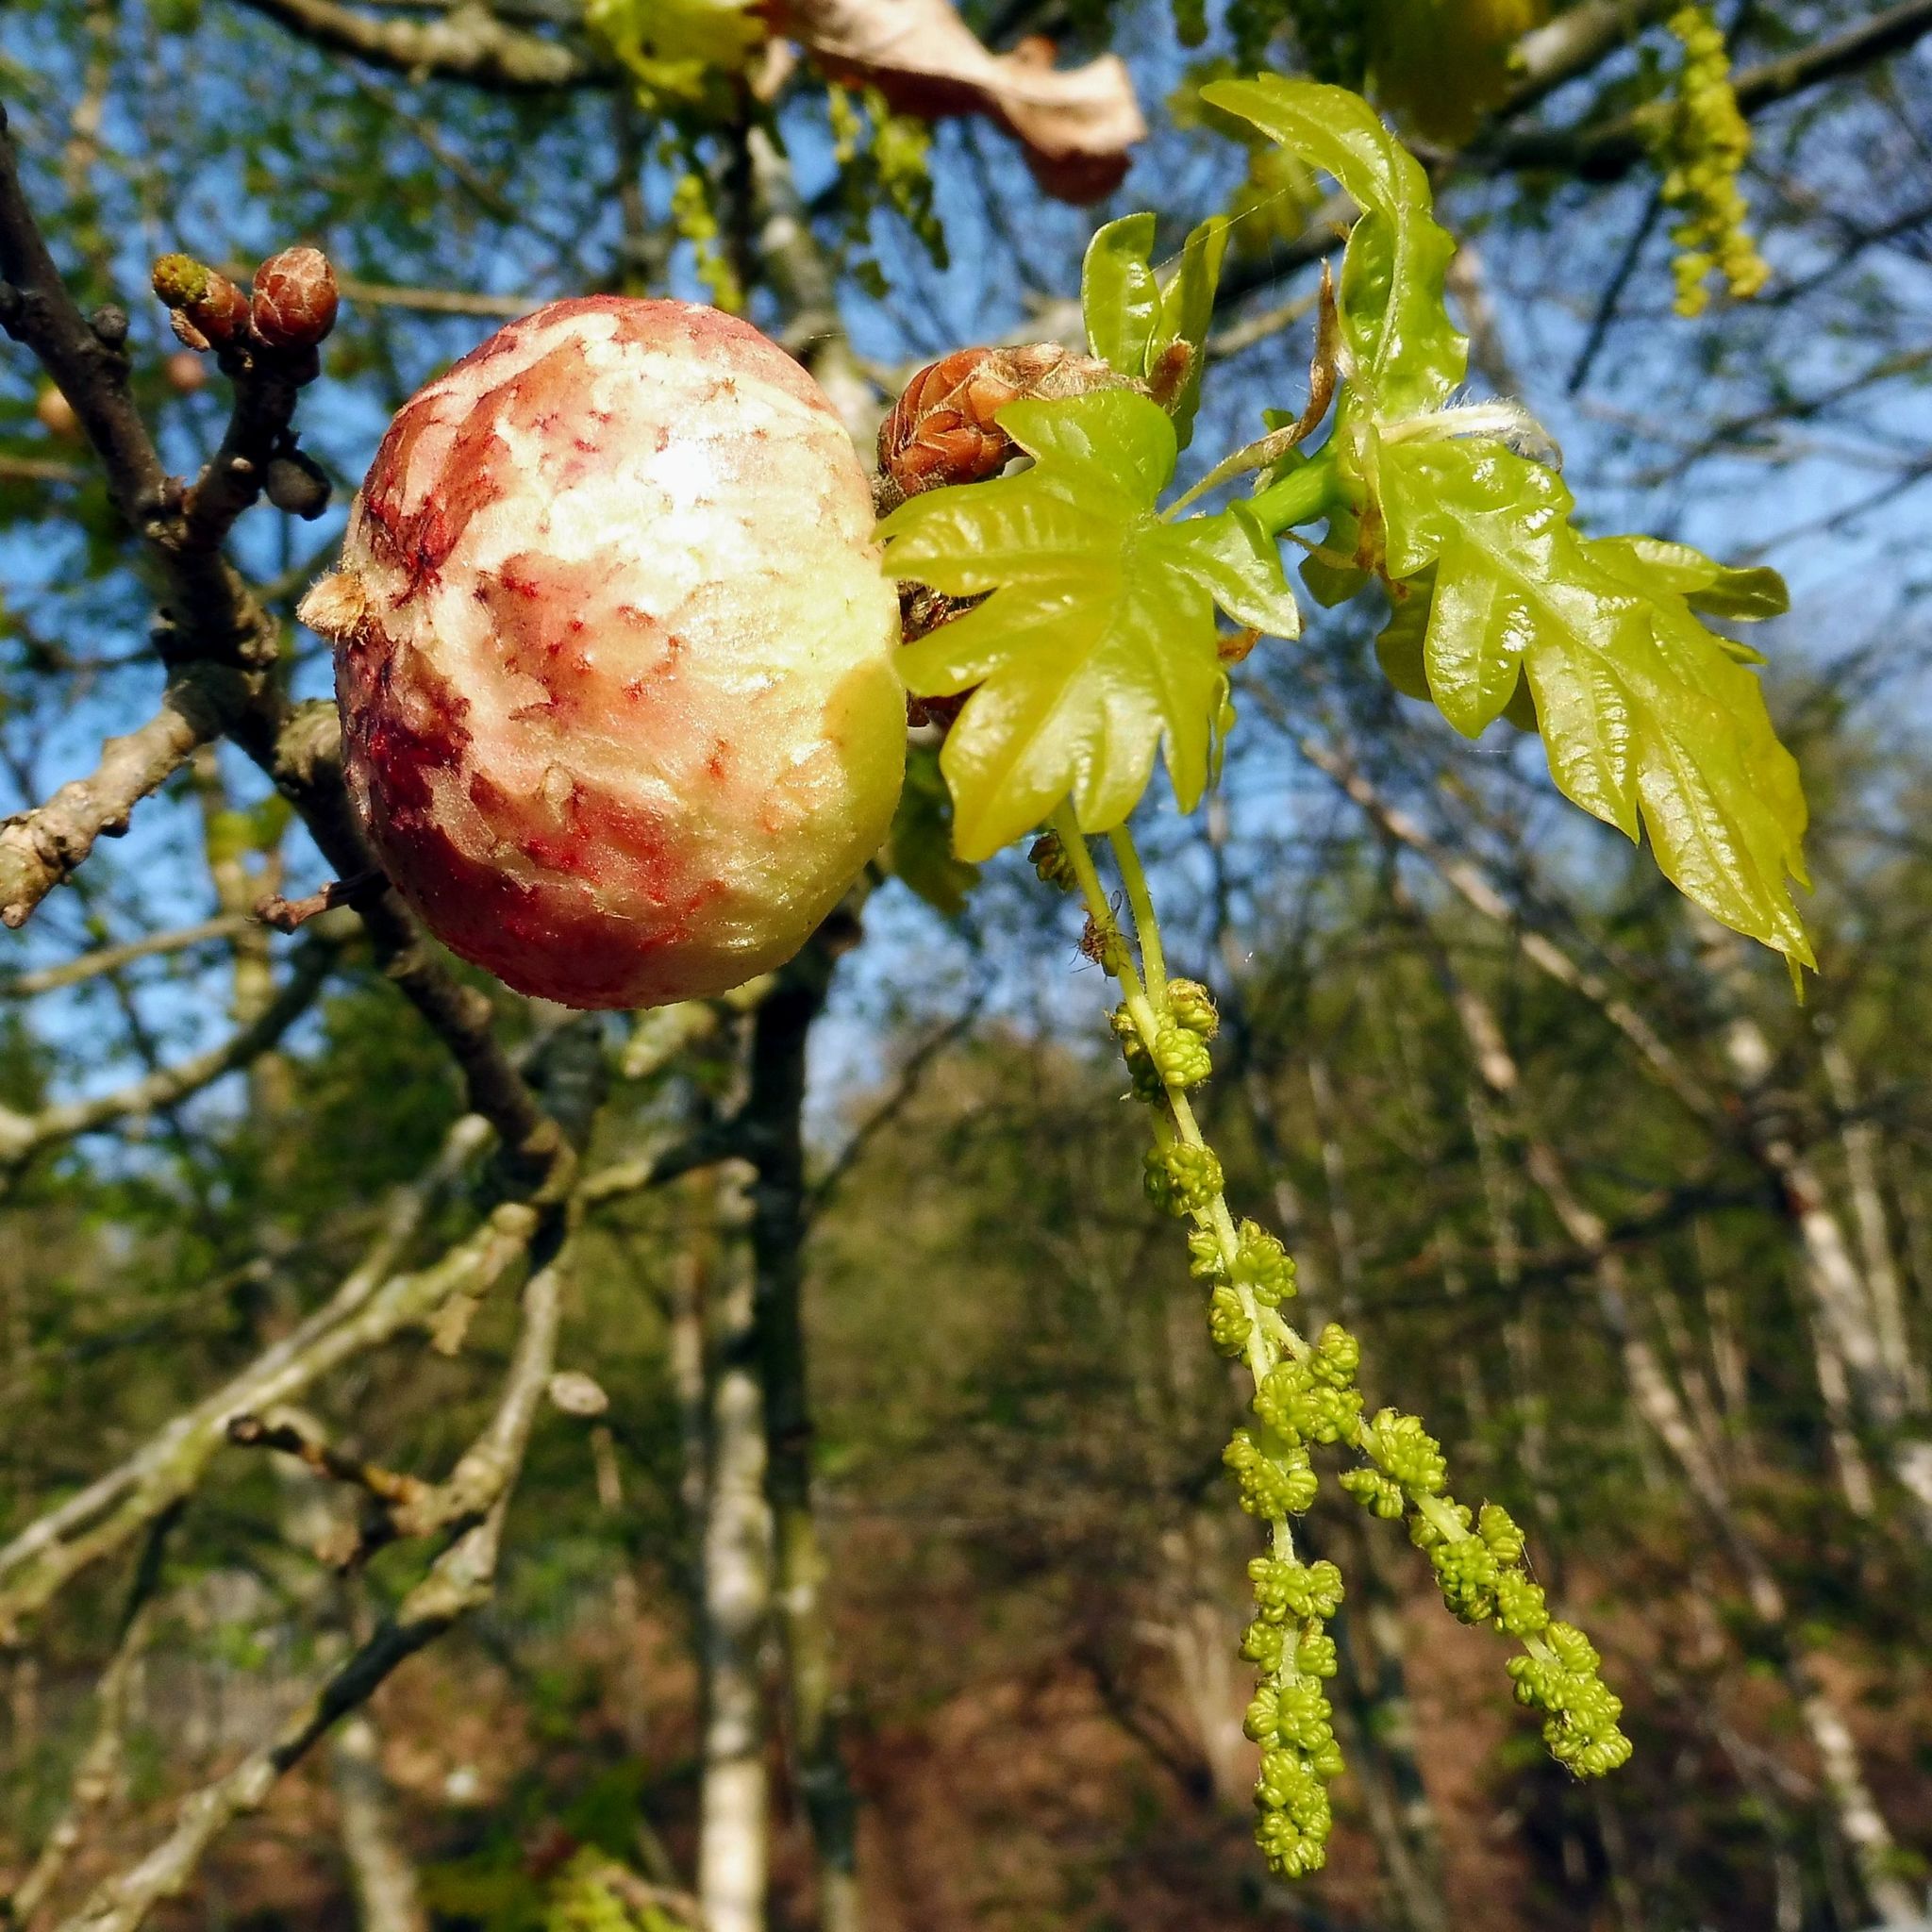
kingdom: Animalia
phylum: Arthropoda
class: Insecta
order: Hymenoptera
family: Cynipidae
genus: Biorhiza
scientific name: Biorhiza pallida
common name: Oak apple
